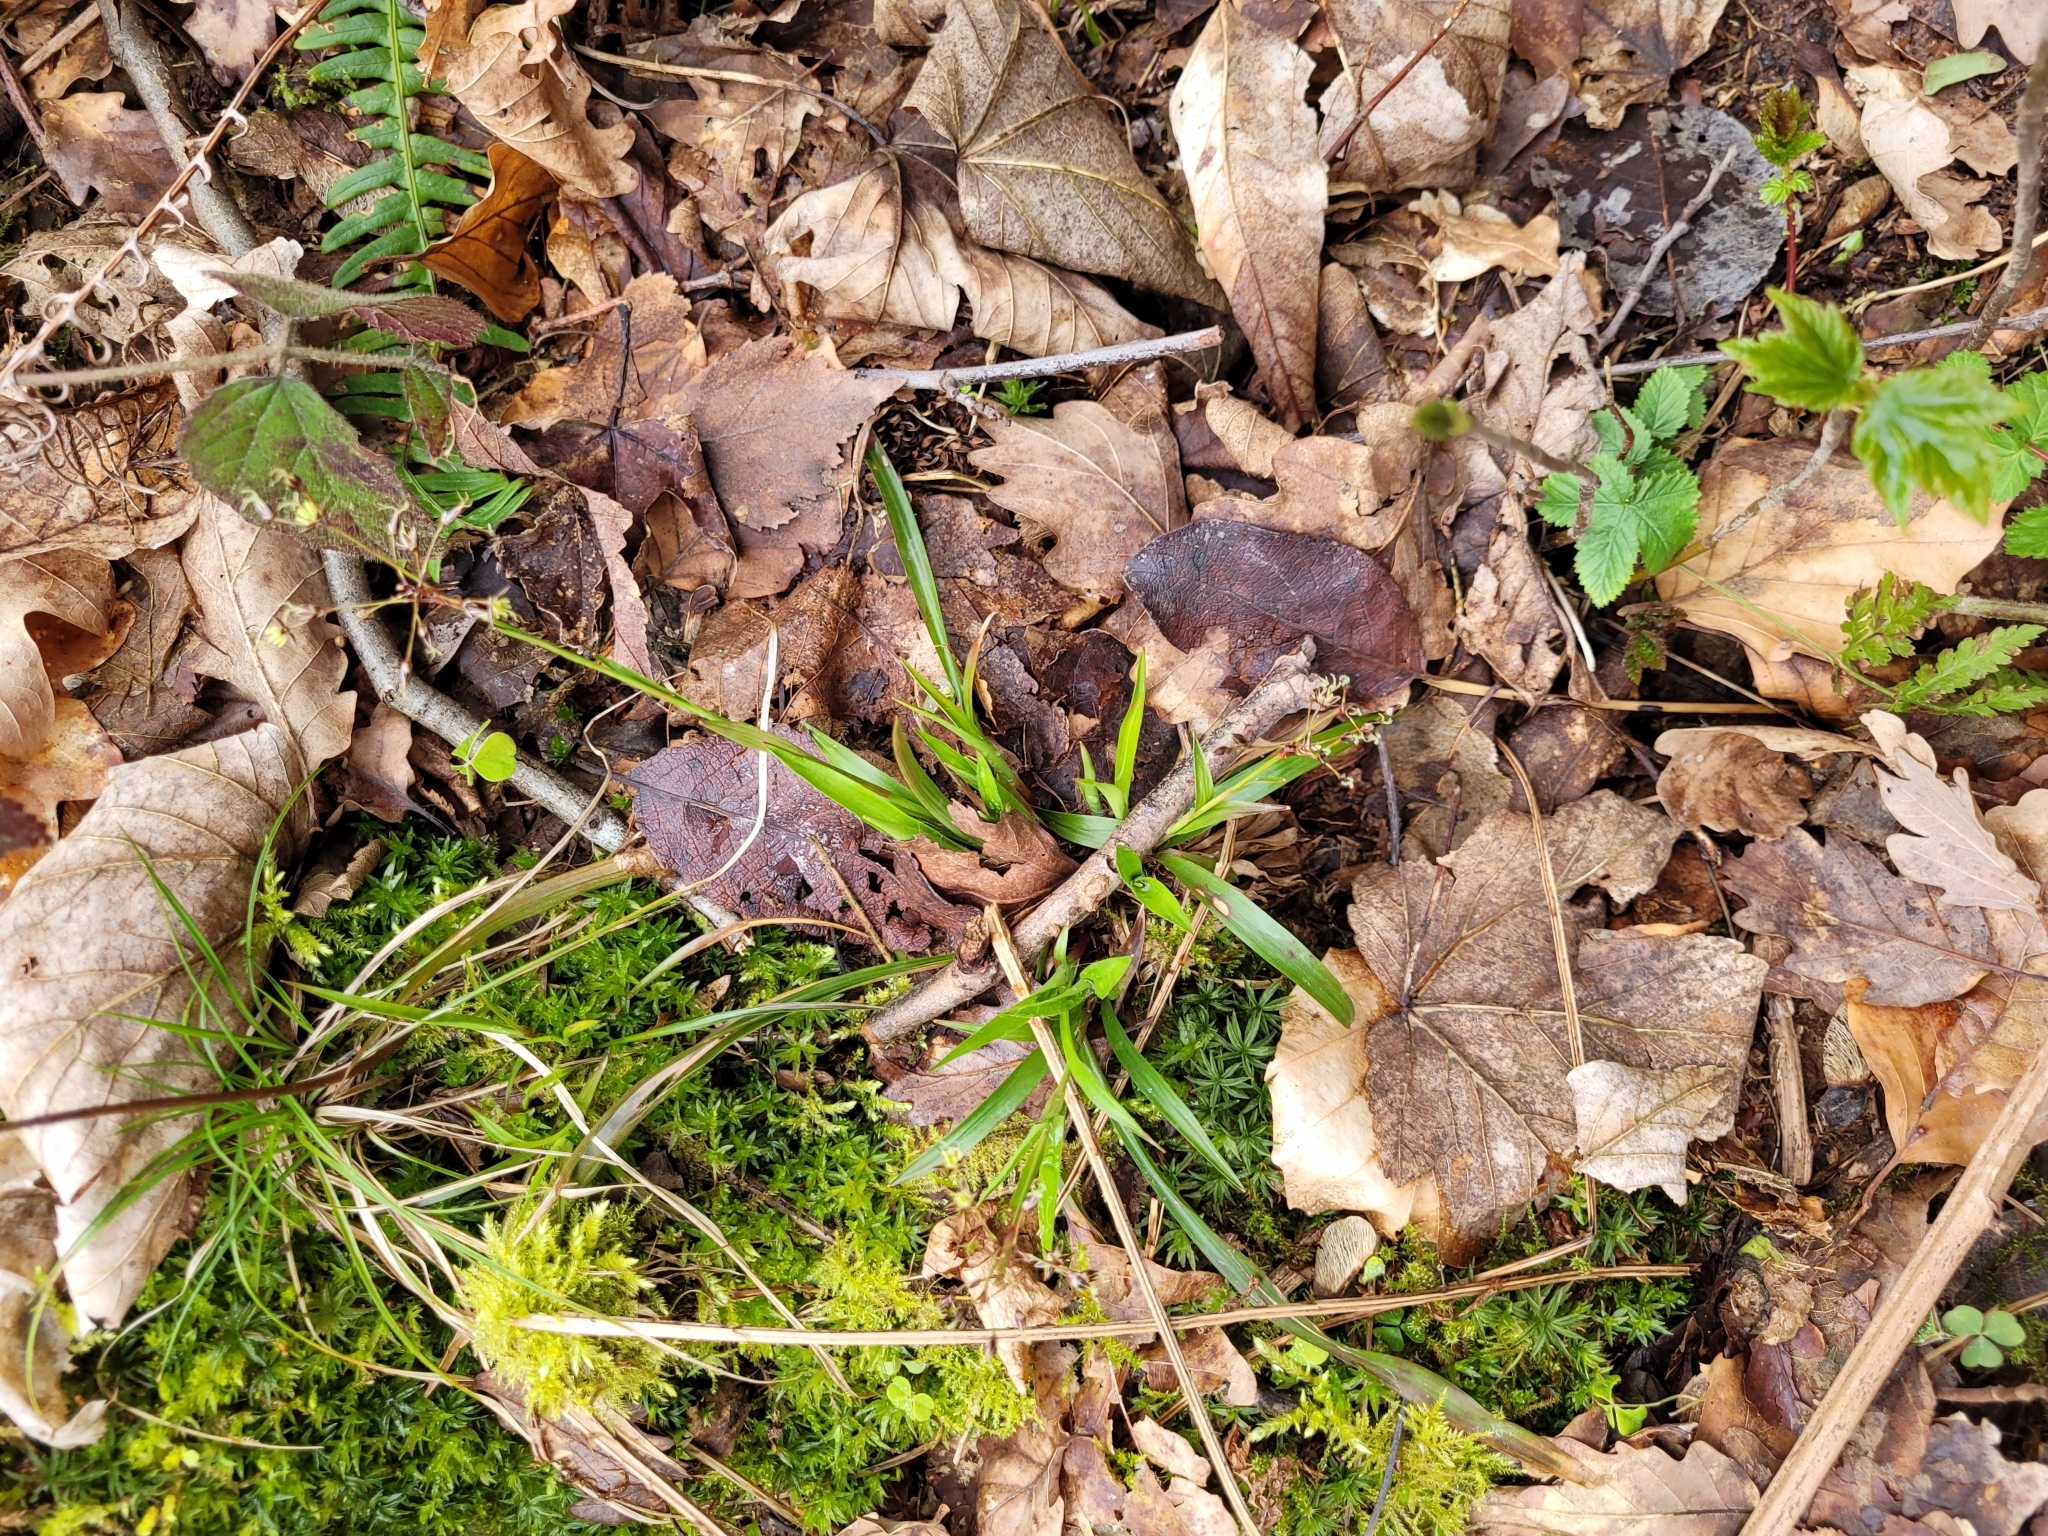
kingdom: Plantae
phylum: Tracheophyta
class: Liliopsida
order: Poales
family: Juncaceae
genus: Luzula
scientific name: Luzula pilosa
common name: Hairy wood-rush
